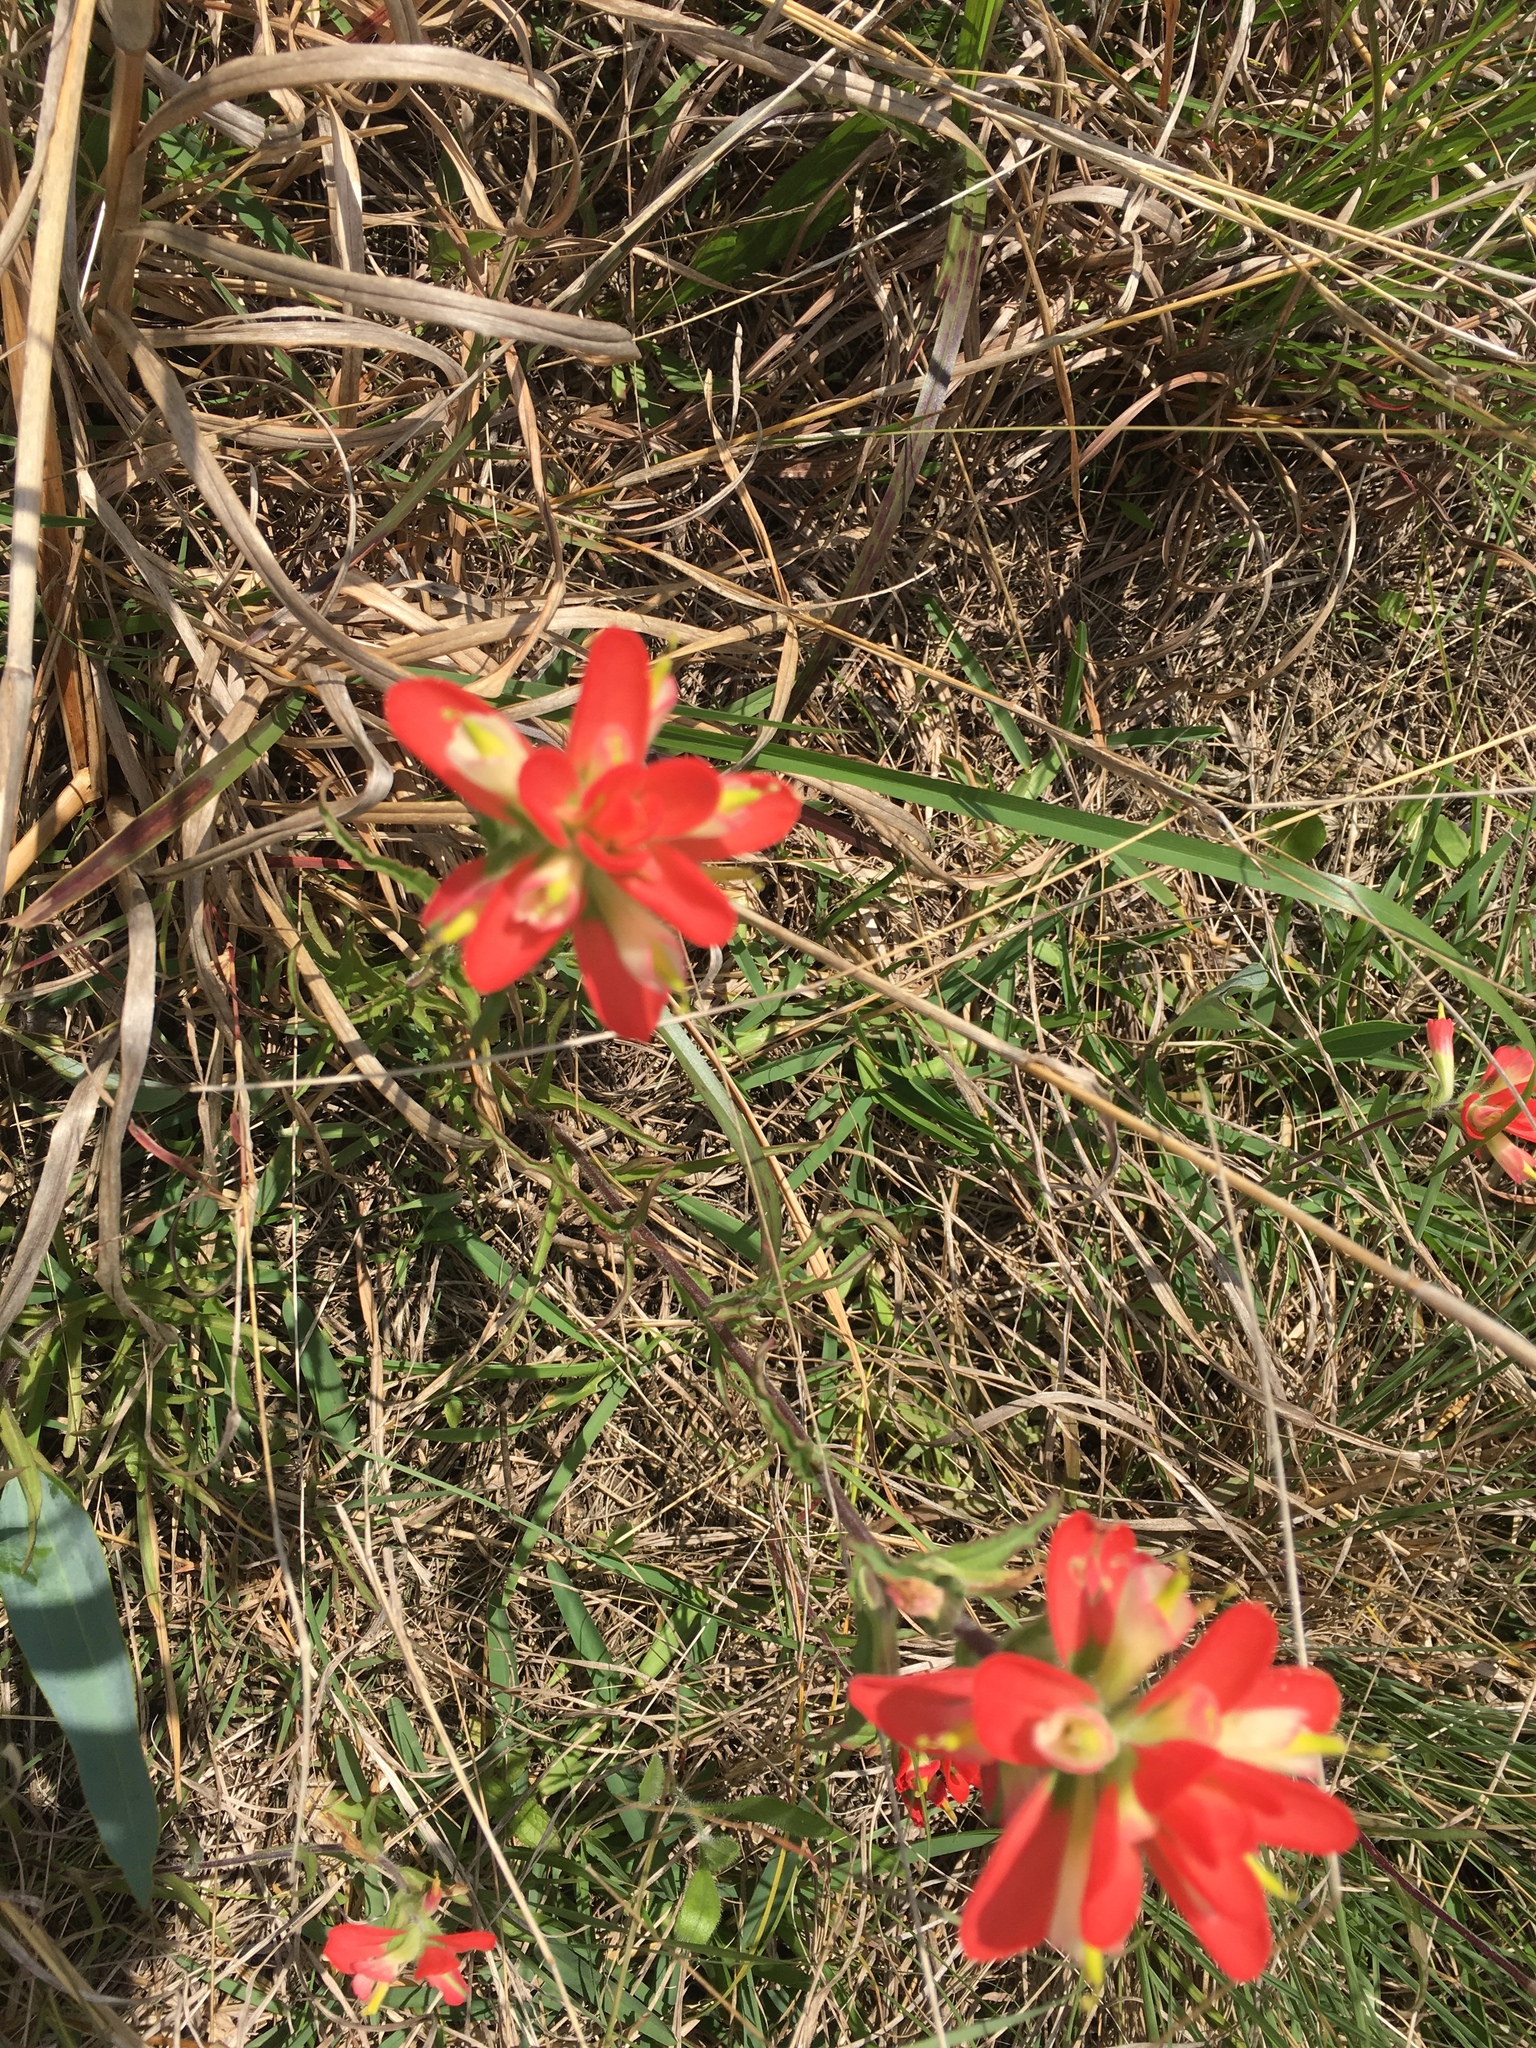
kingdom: Plantae
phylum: Tracheophyta
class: Magnoliopsida
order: Lamiales
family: Orobanchaceae
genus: Castilleja
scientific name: Castilleja indivisa
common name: Texas paintbrush
